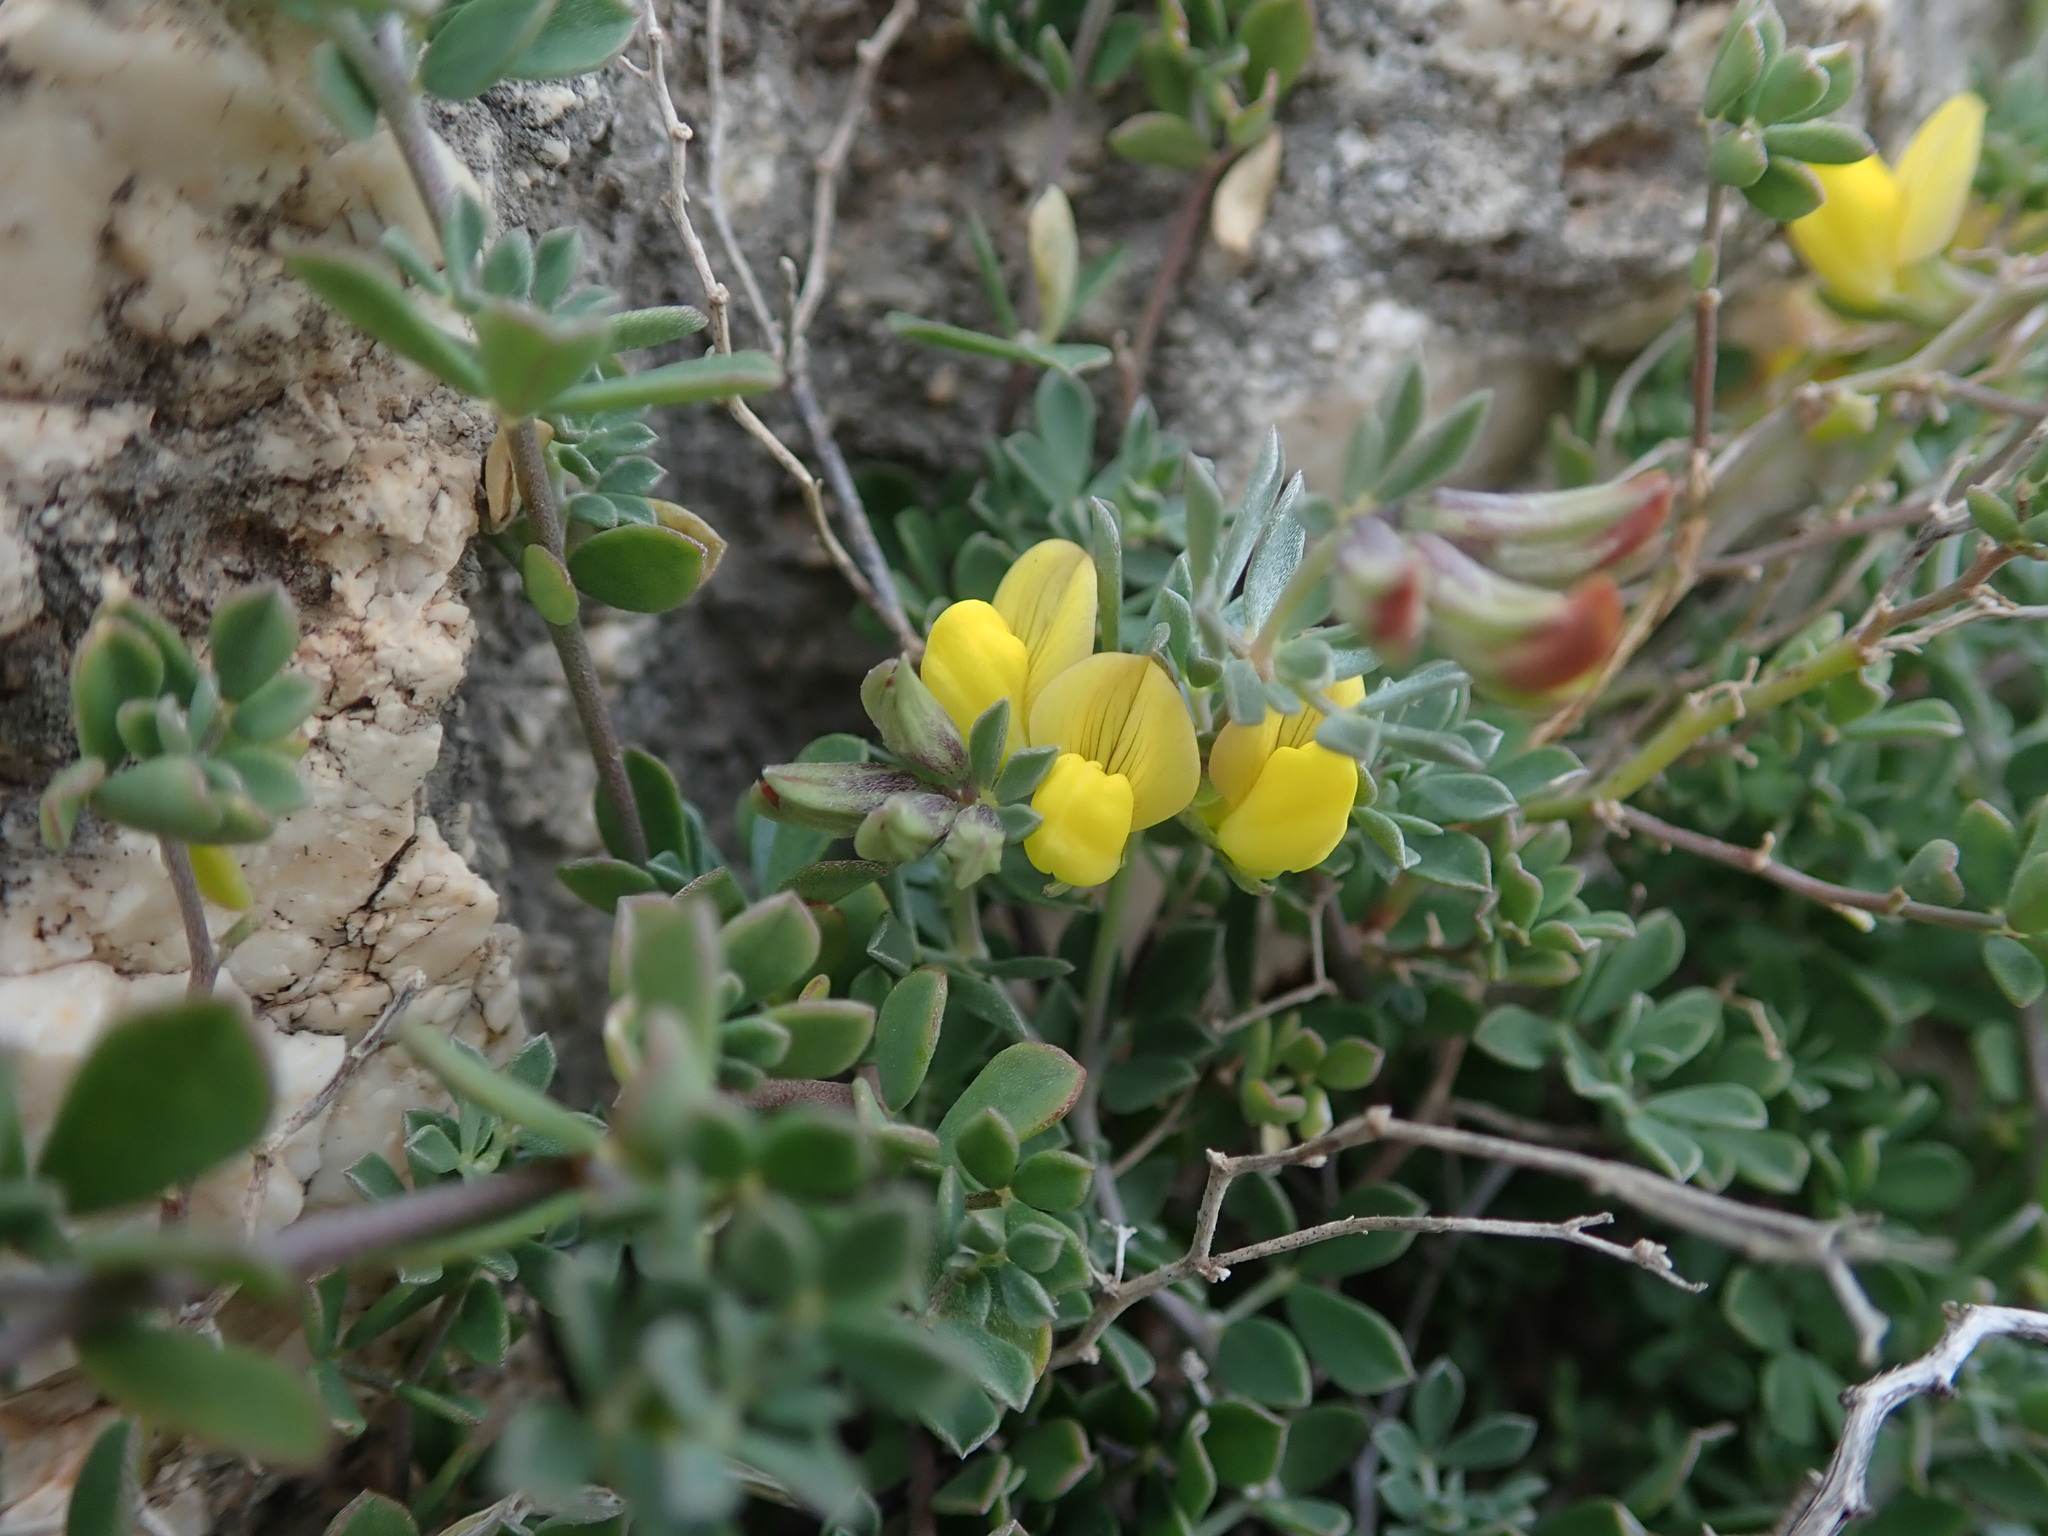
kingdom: Plantae
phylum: Tracheophyta
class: Magnoliopsida
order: Fabales
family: Fabaceae
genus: Lotus
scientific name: Lotus cytisoides
